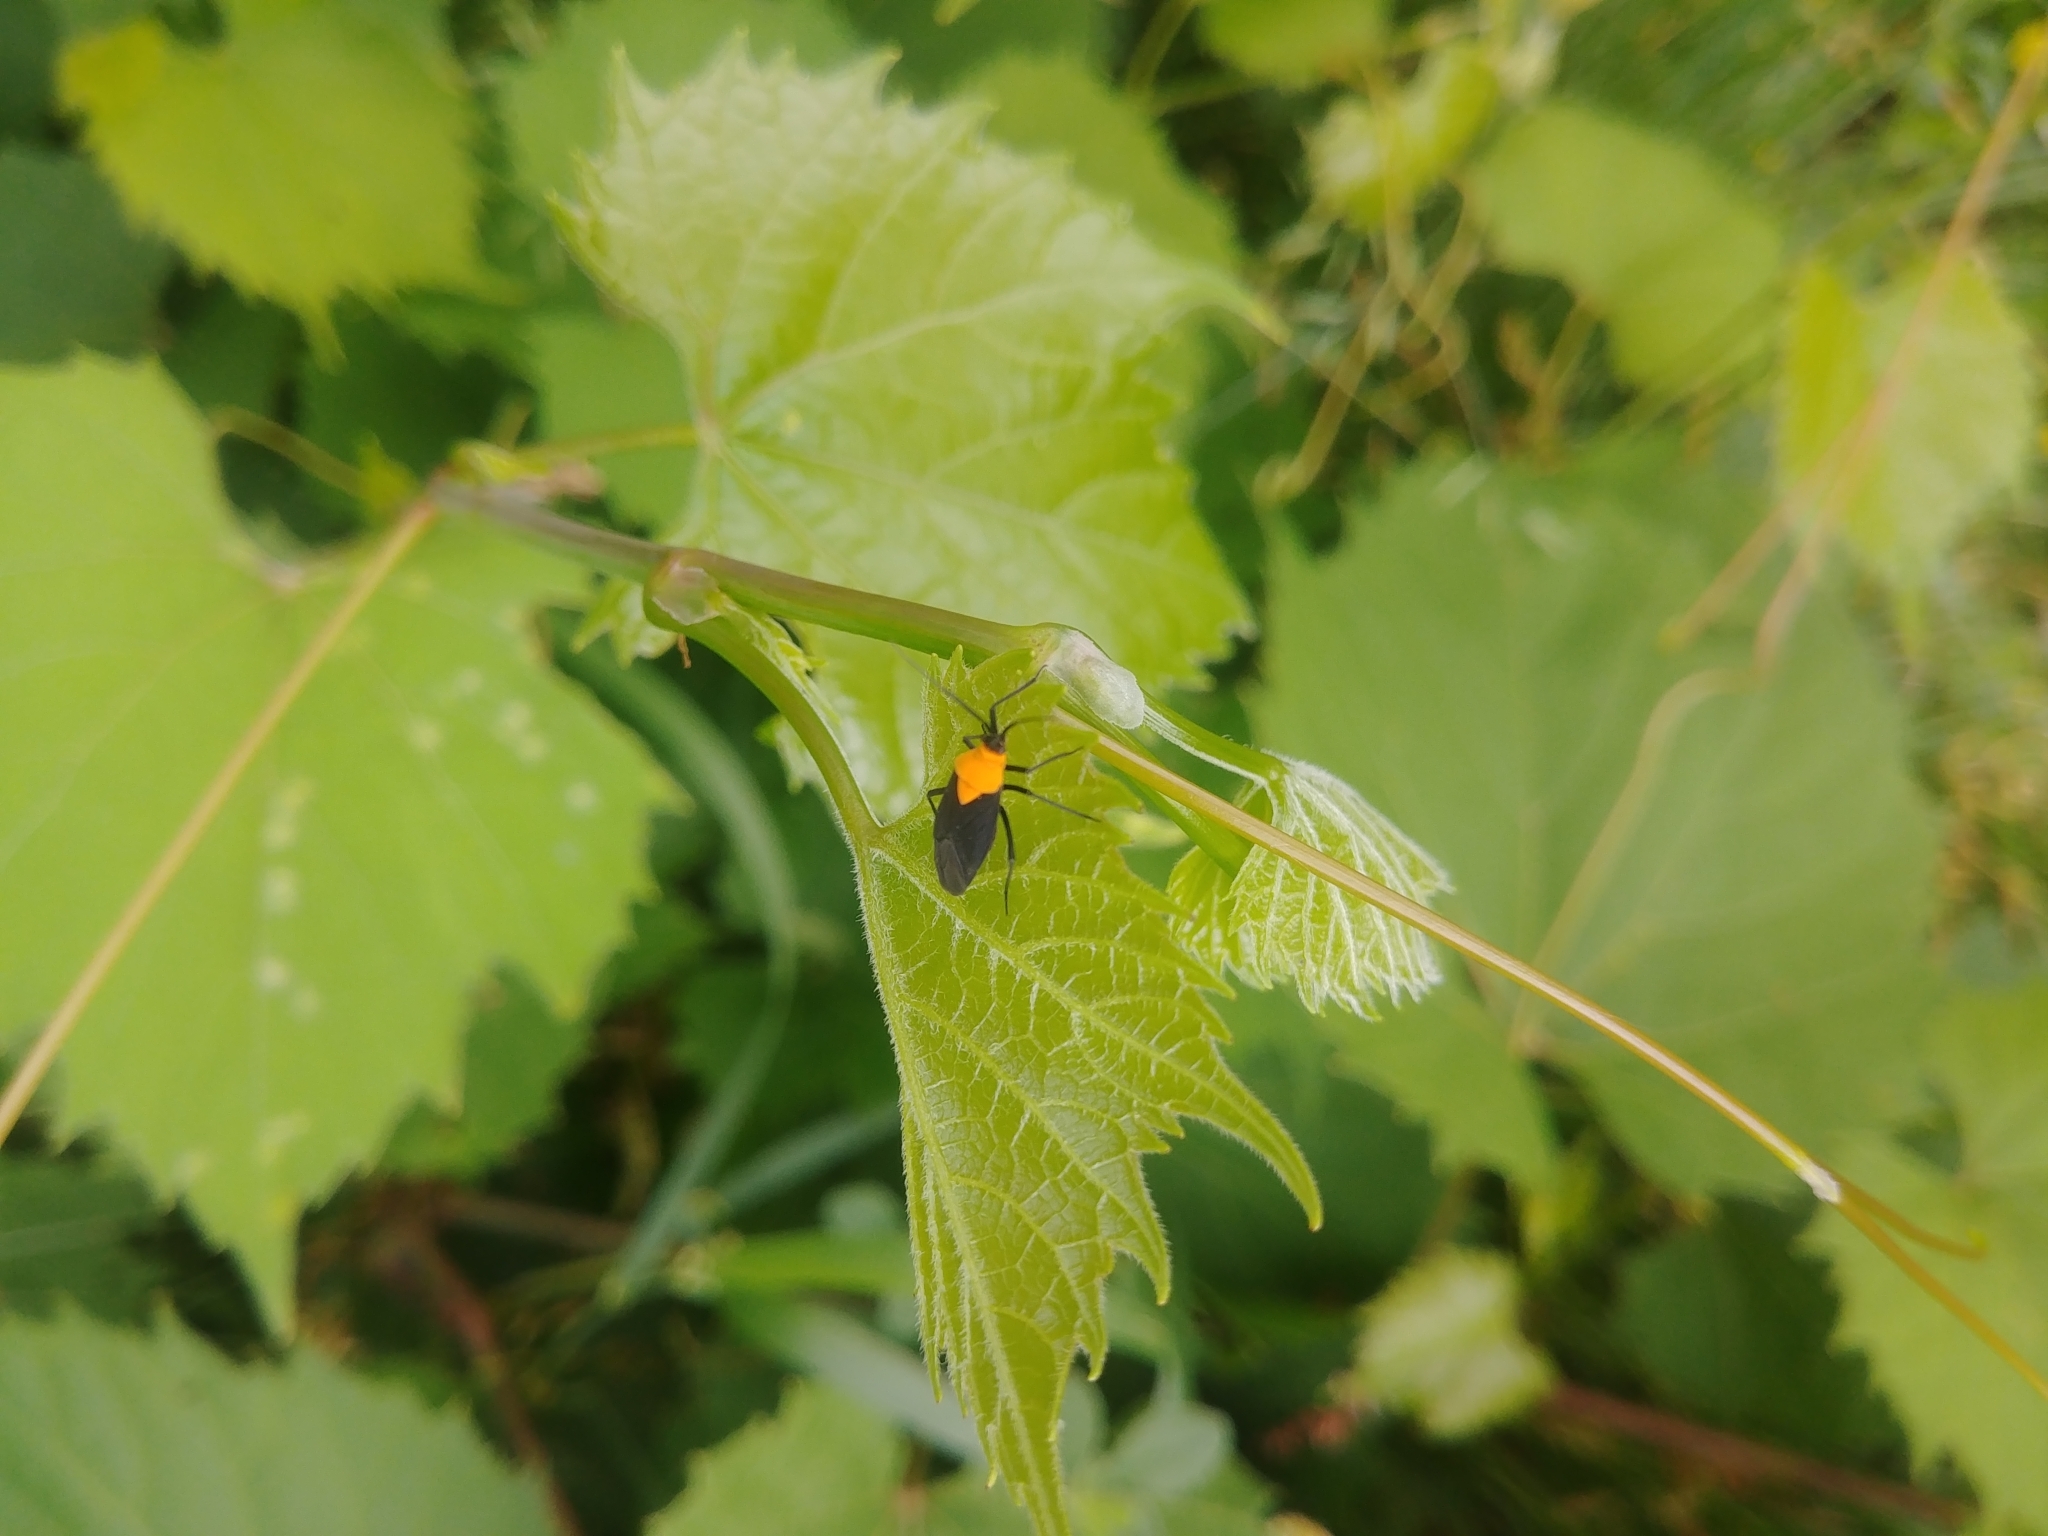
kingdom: Animalia
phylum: Arthropoda
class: Insecta
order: Hemiptera
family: Miridae
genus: Prepops
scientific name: Prepops insitivus
